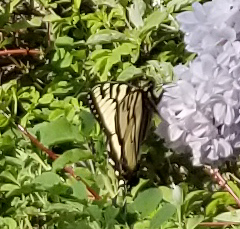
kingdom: Animalia
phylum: Arthropoda
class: Insecta
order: Lepidoptera
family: Papilionidae
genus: Papilio
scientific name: Papilio canadensis
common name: Canadian tiger swallowtail
